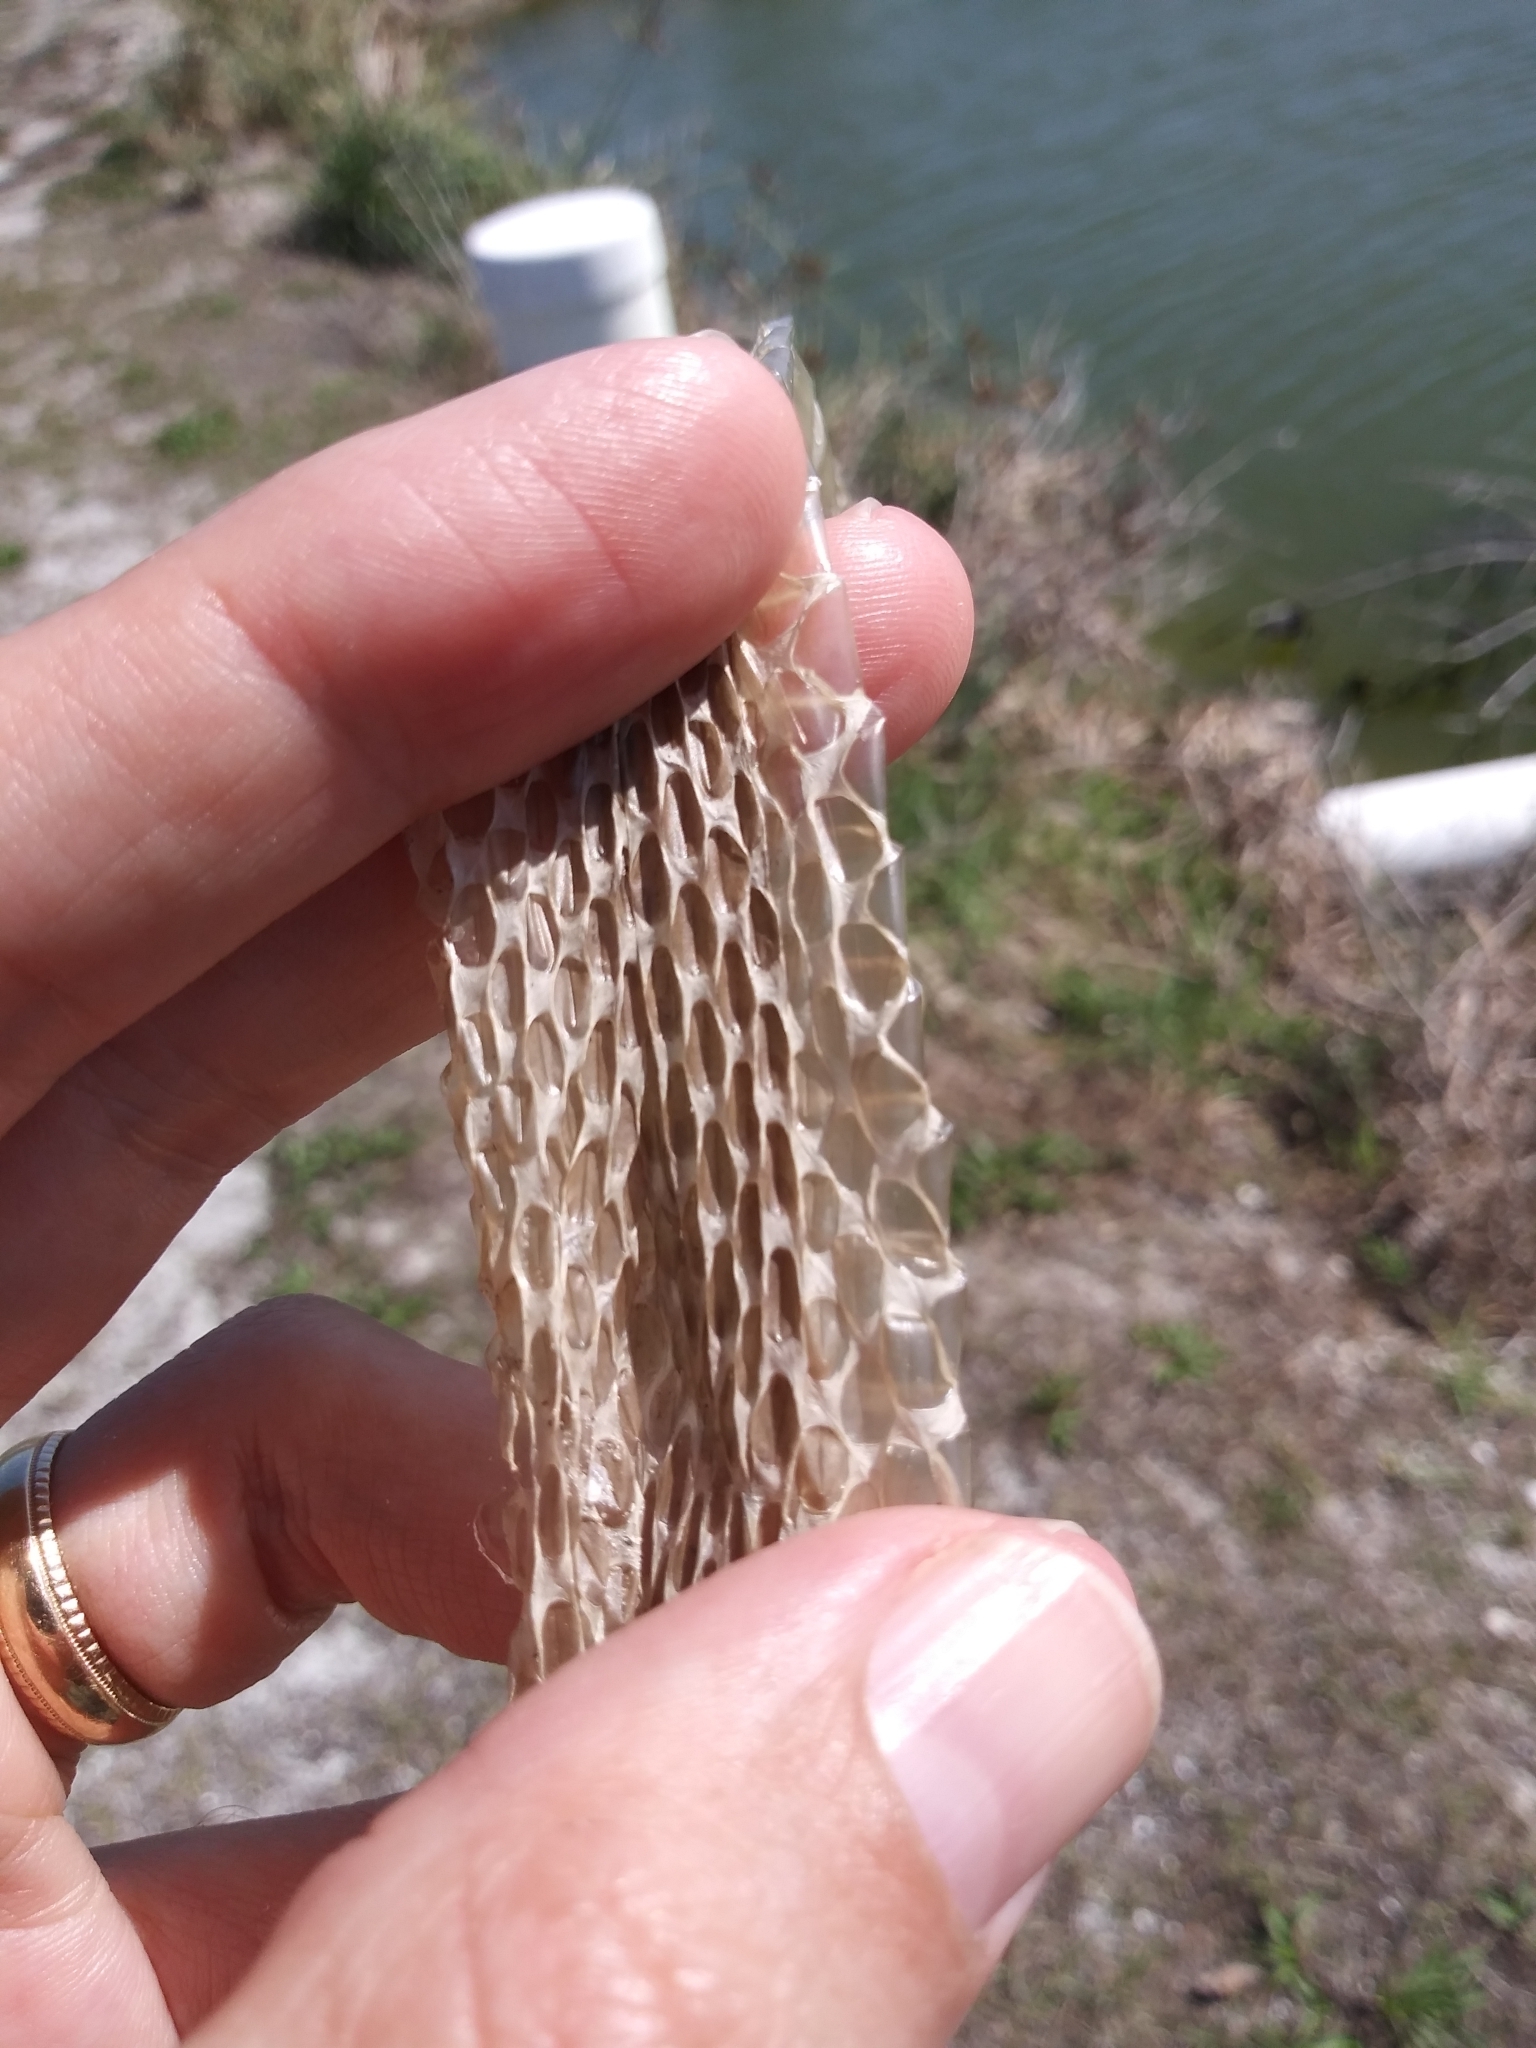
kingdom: Animalia
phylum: Chordata
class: Squamata
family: Colubridae
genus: Pantherophis
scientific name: Pantherophis alleghaniensis
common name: Eastern rat snake
